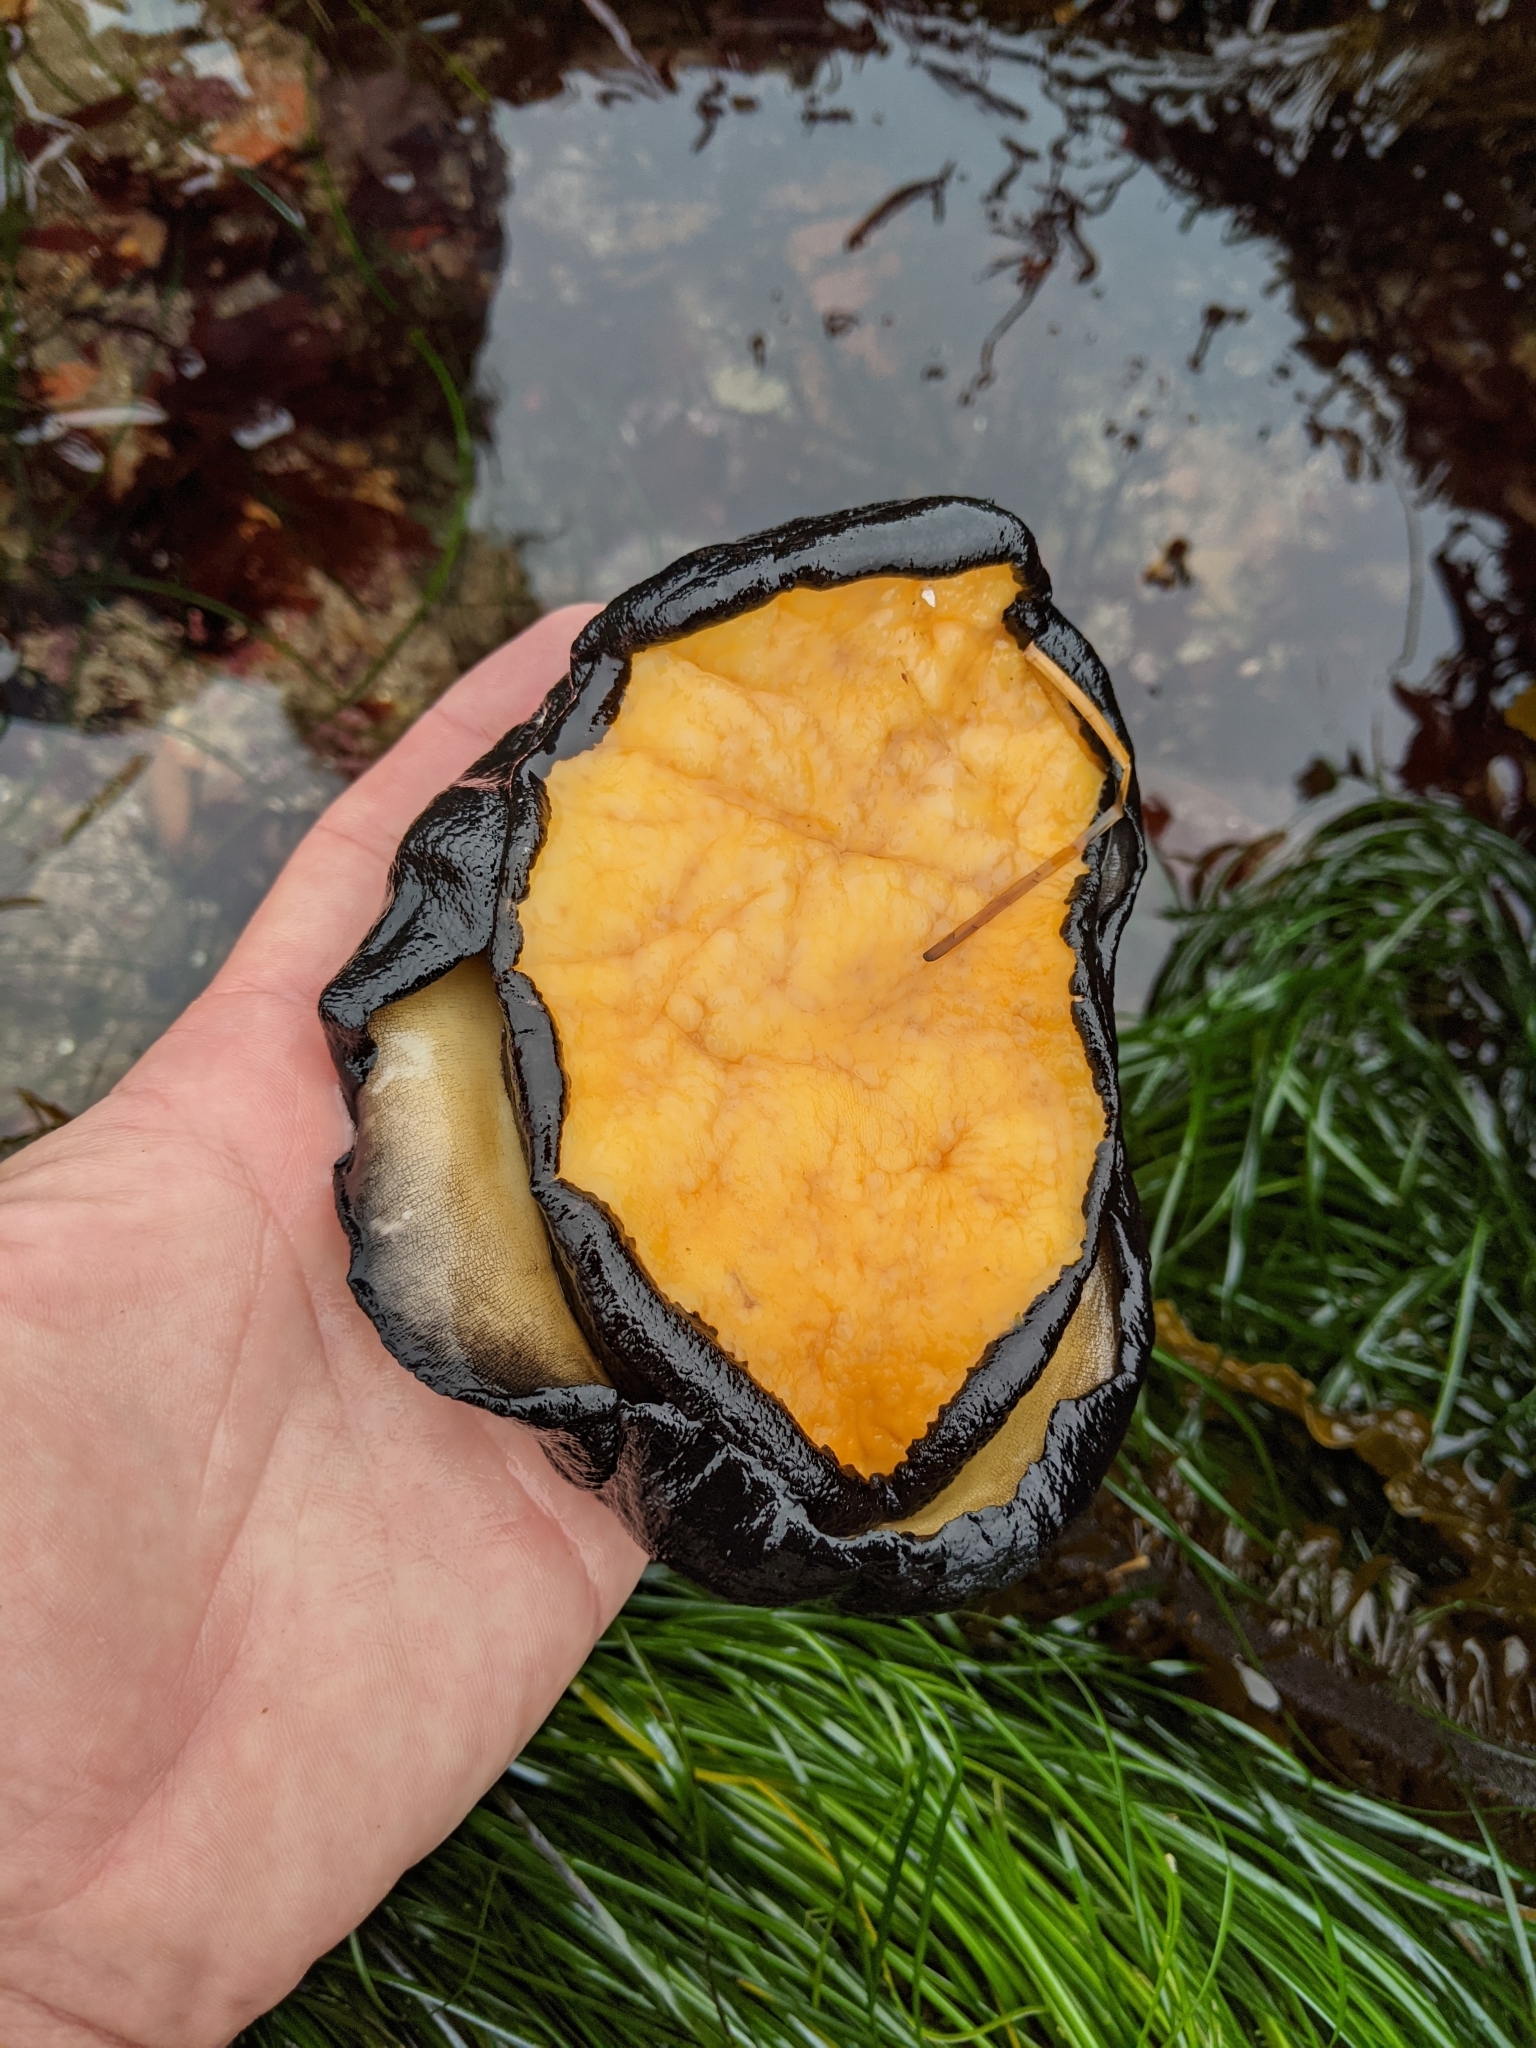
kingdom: Animalia
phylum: Mollusca
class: Gastropoda
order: Lepetellida
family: Fissurellidae
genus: Megathura
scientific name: Megathura crenulata
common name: Giant keyhole limpet
